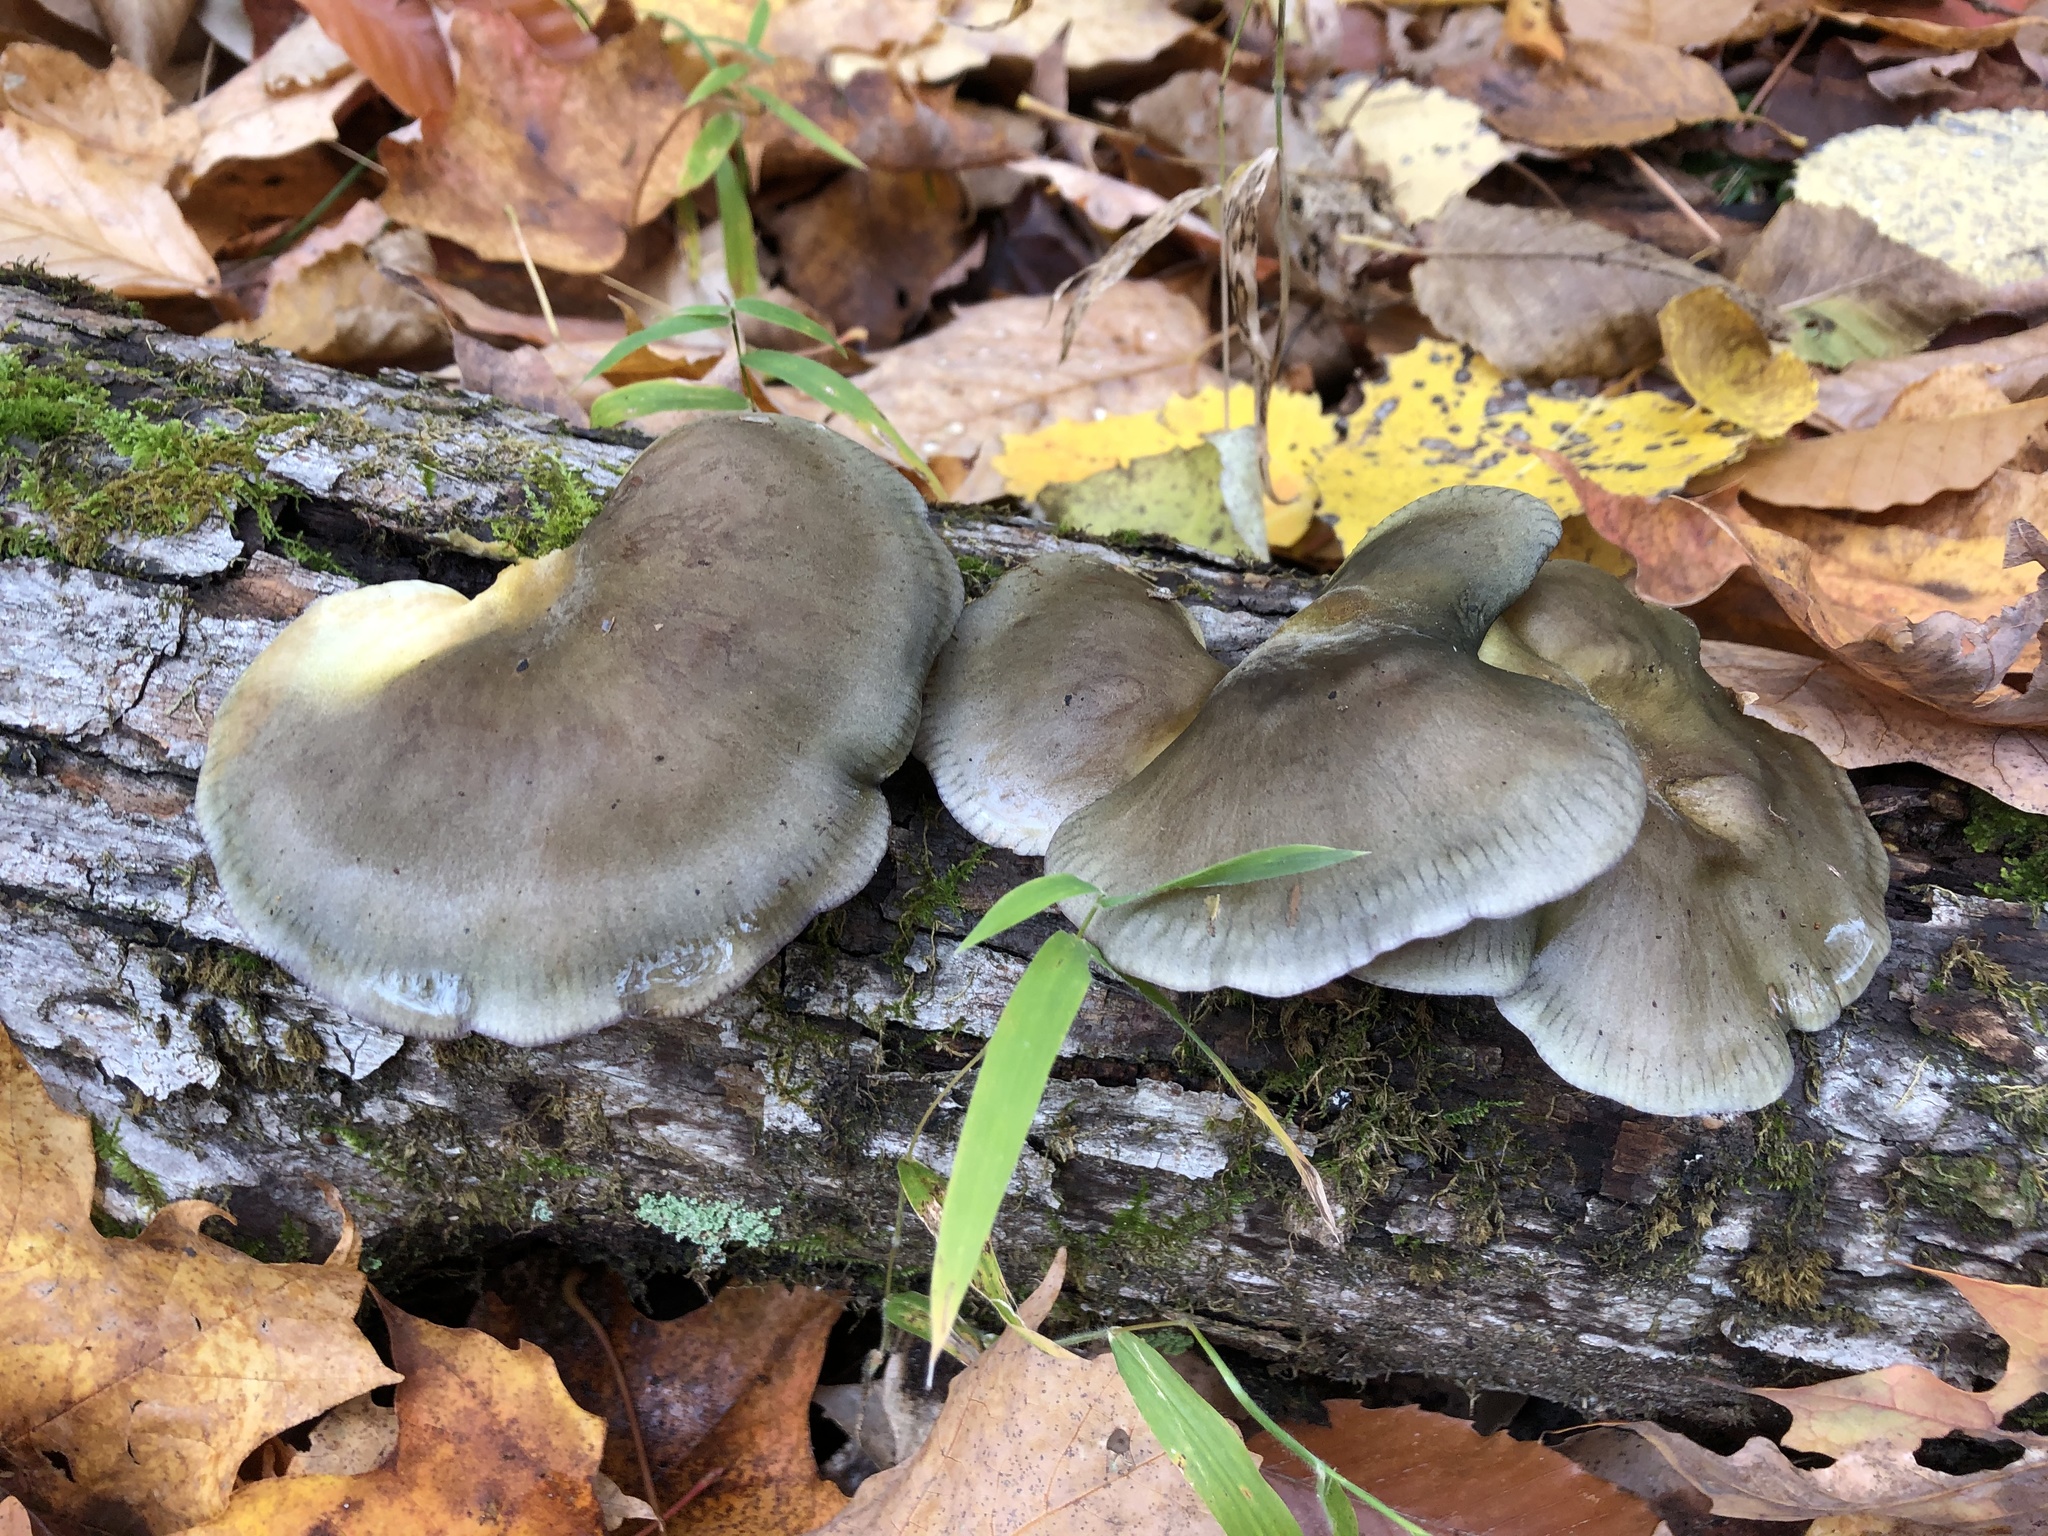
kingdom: Fungi
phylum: Basidiomycota
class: Agaricomycetes
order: Agaricales
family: Sarcomyxaceae
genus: Sarcomyxa
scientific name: Sarcomyxa serotina
